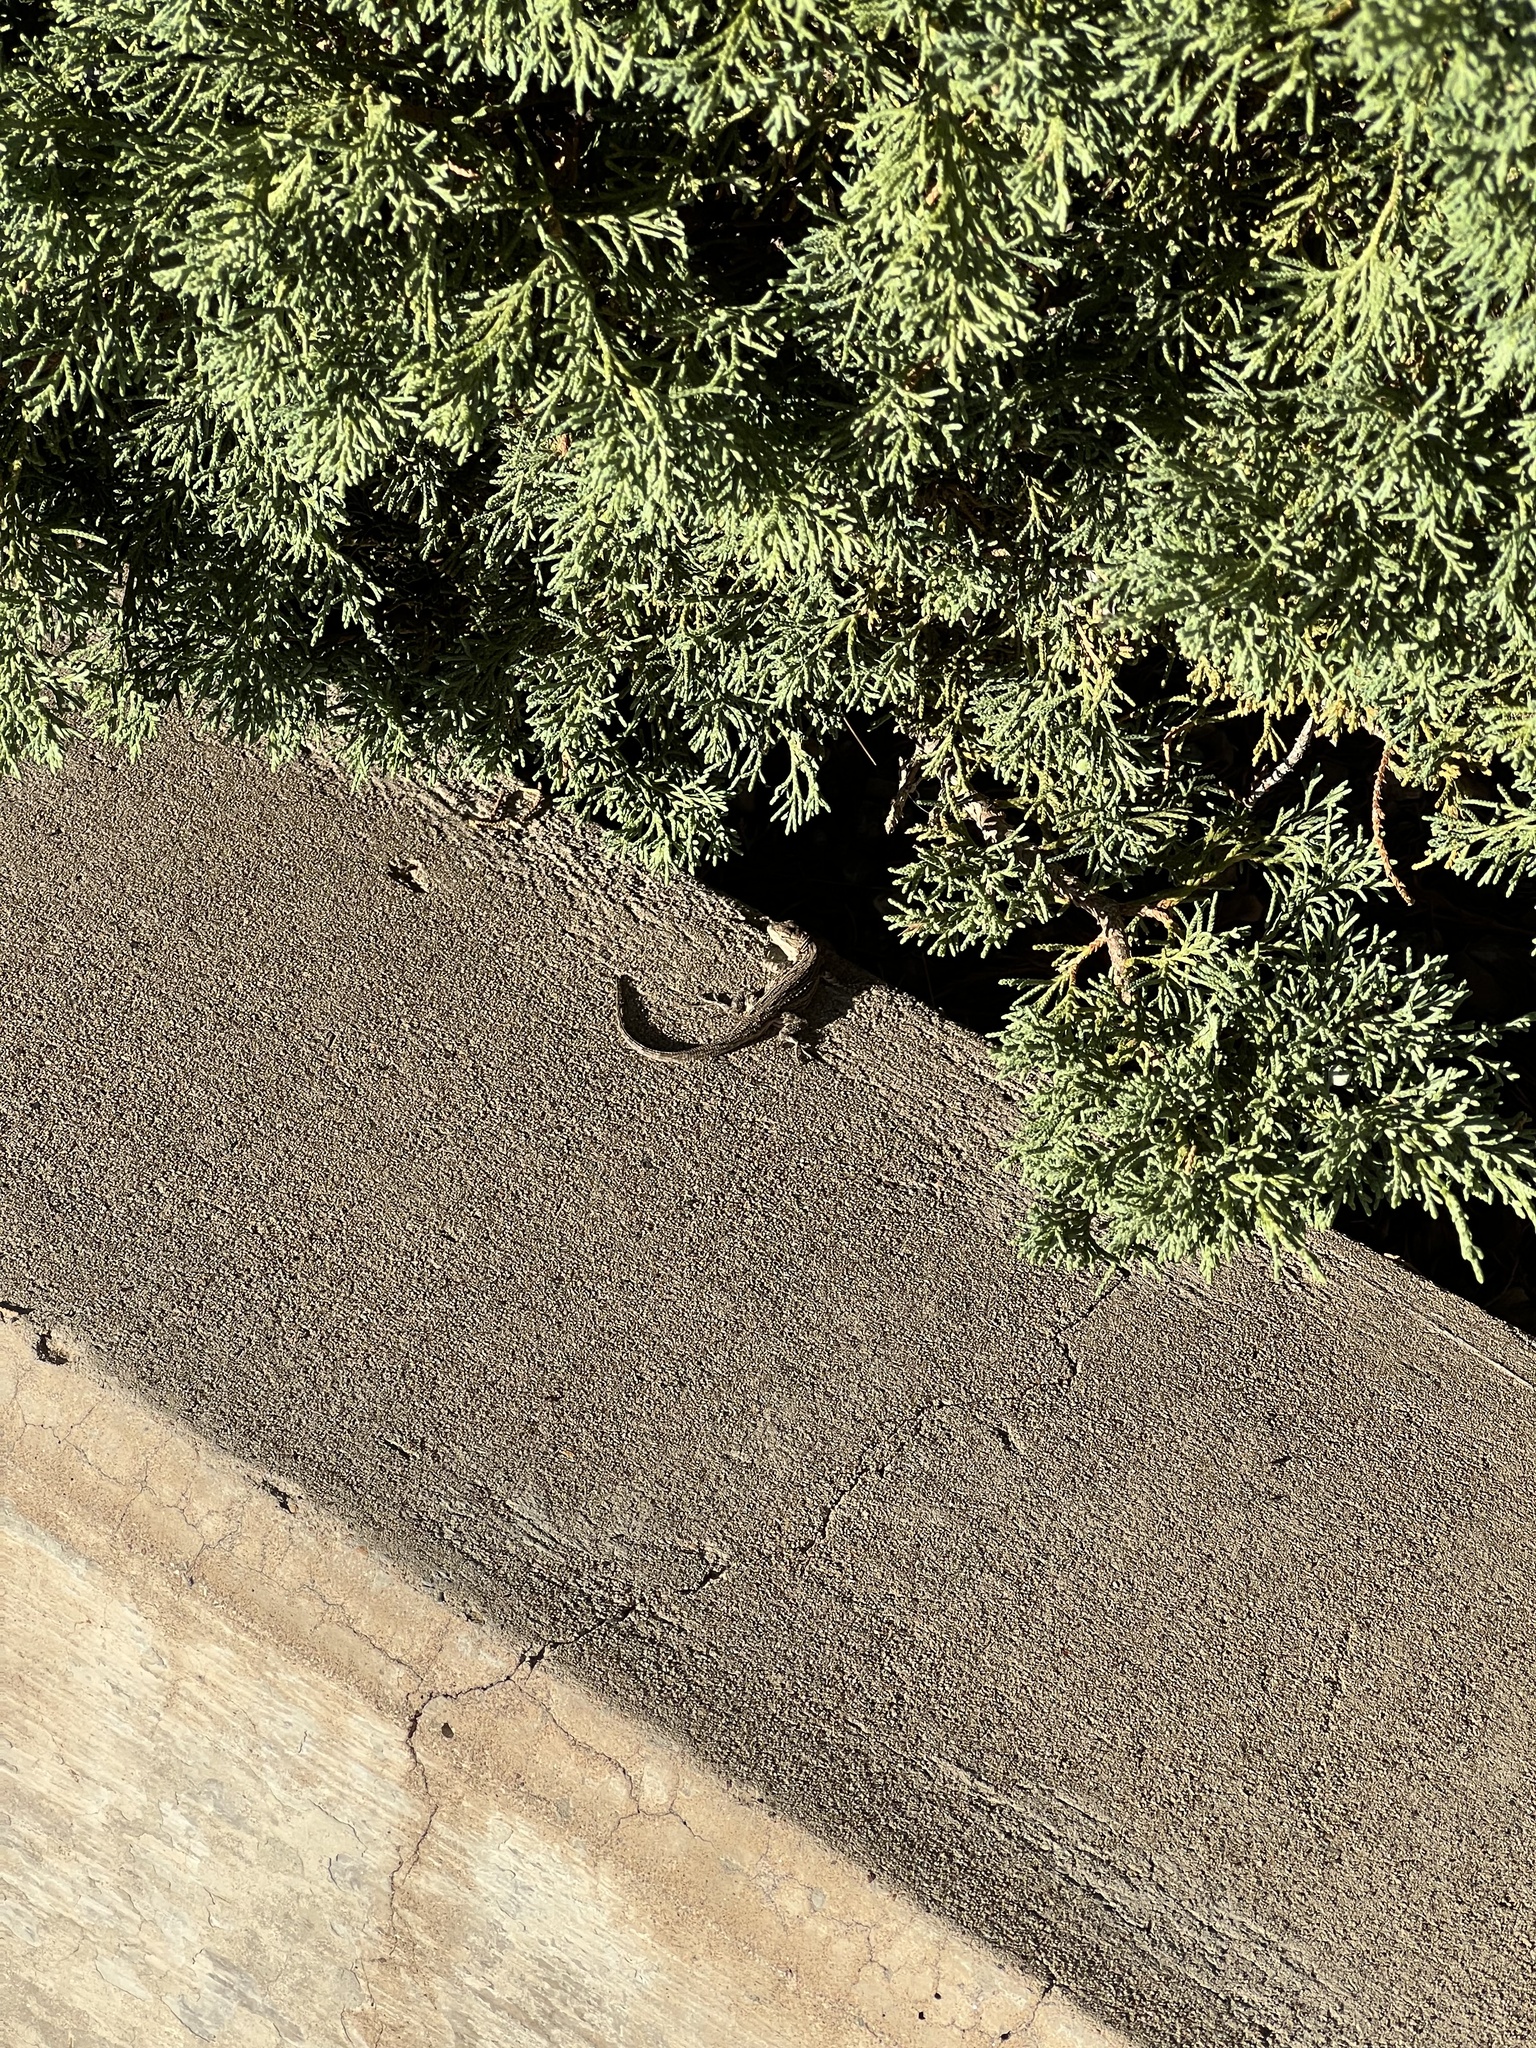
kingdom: Animalia
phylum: Chordata
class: Squamata
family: Phrynosomatidae
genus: Urosaurus
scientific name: Urosaurus ornatus
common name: Ornate tree lizard
